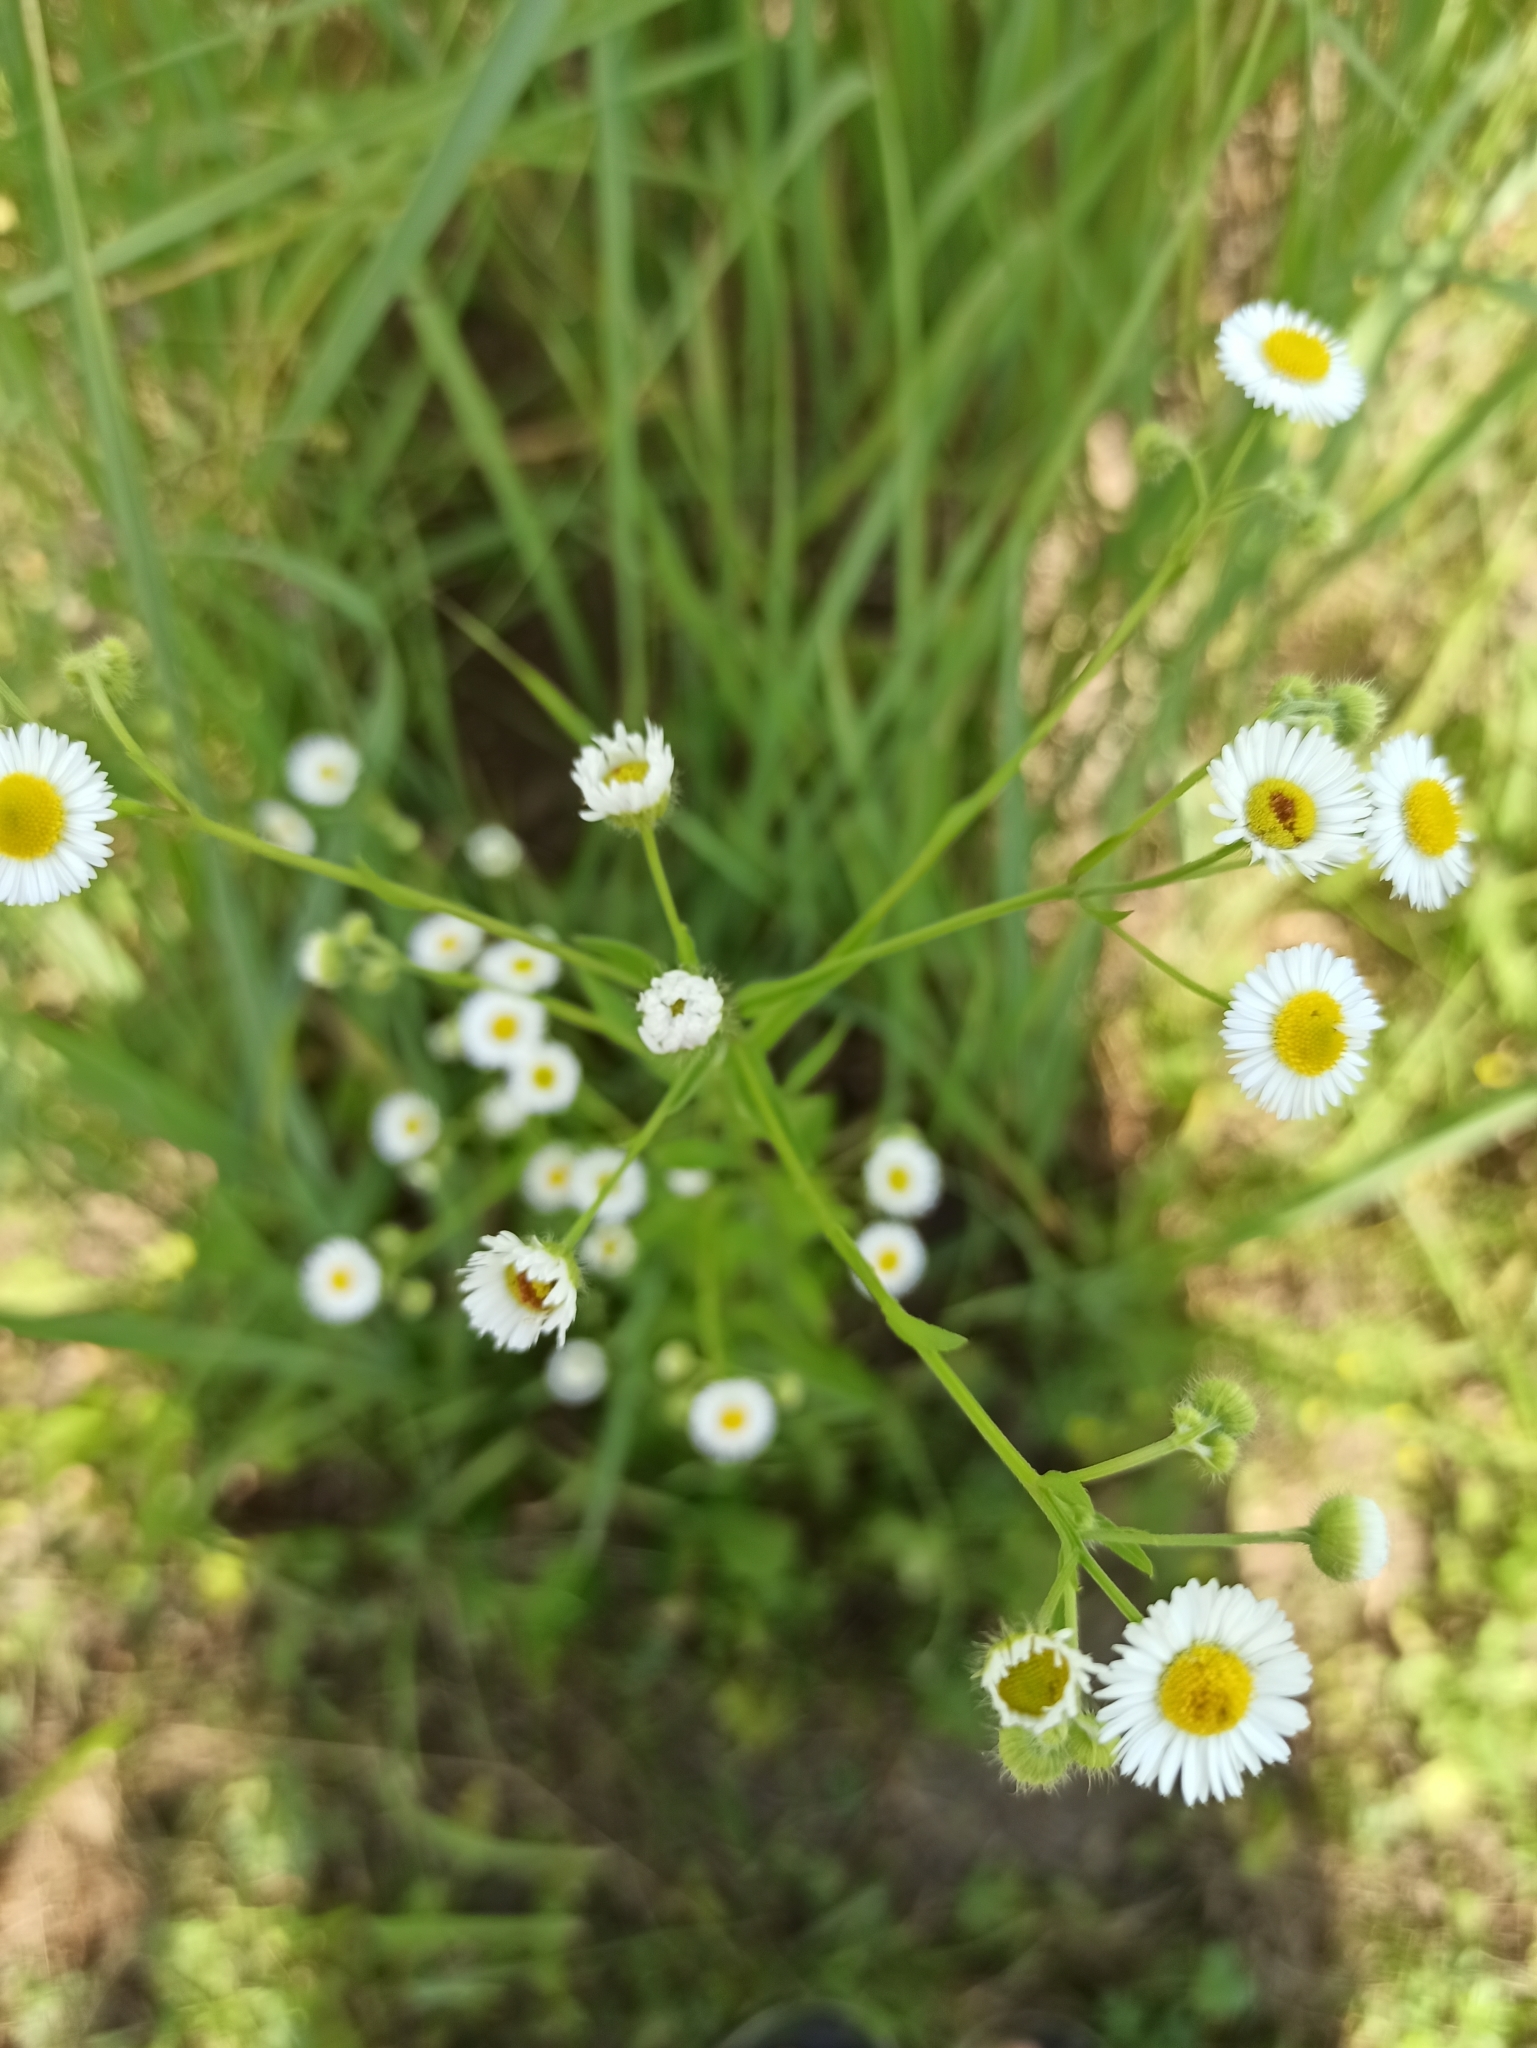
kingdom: Plantae
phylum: Tracheophyta
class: Magnoliopsida
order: Asterales
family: Asteraceae
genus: Erigeron
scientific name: Erigeron strigosus
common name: Common eastern fleabane
